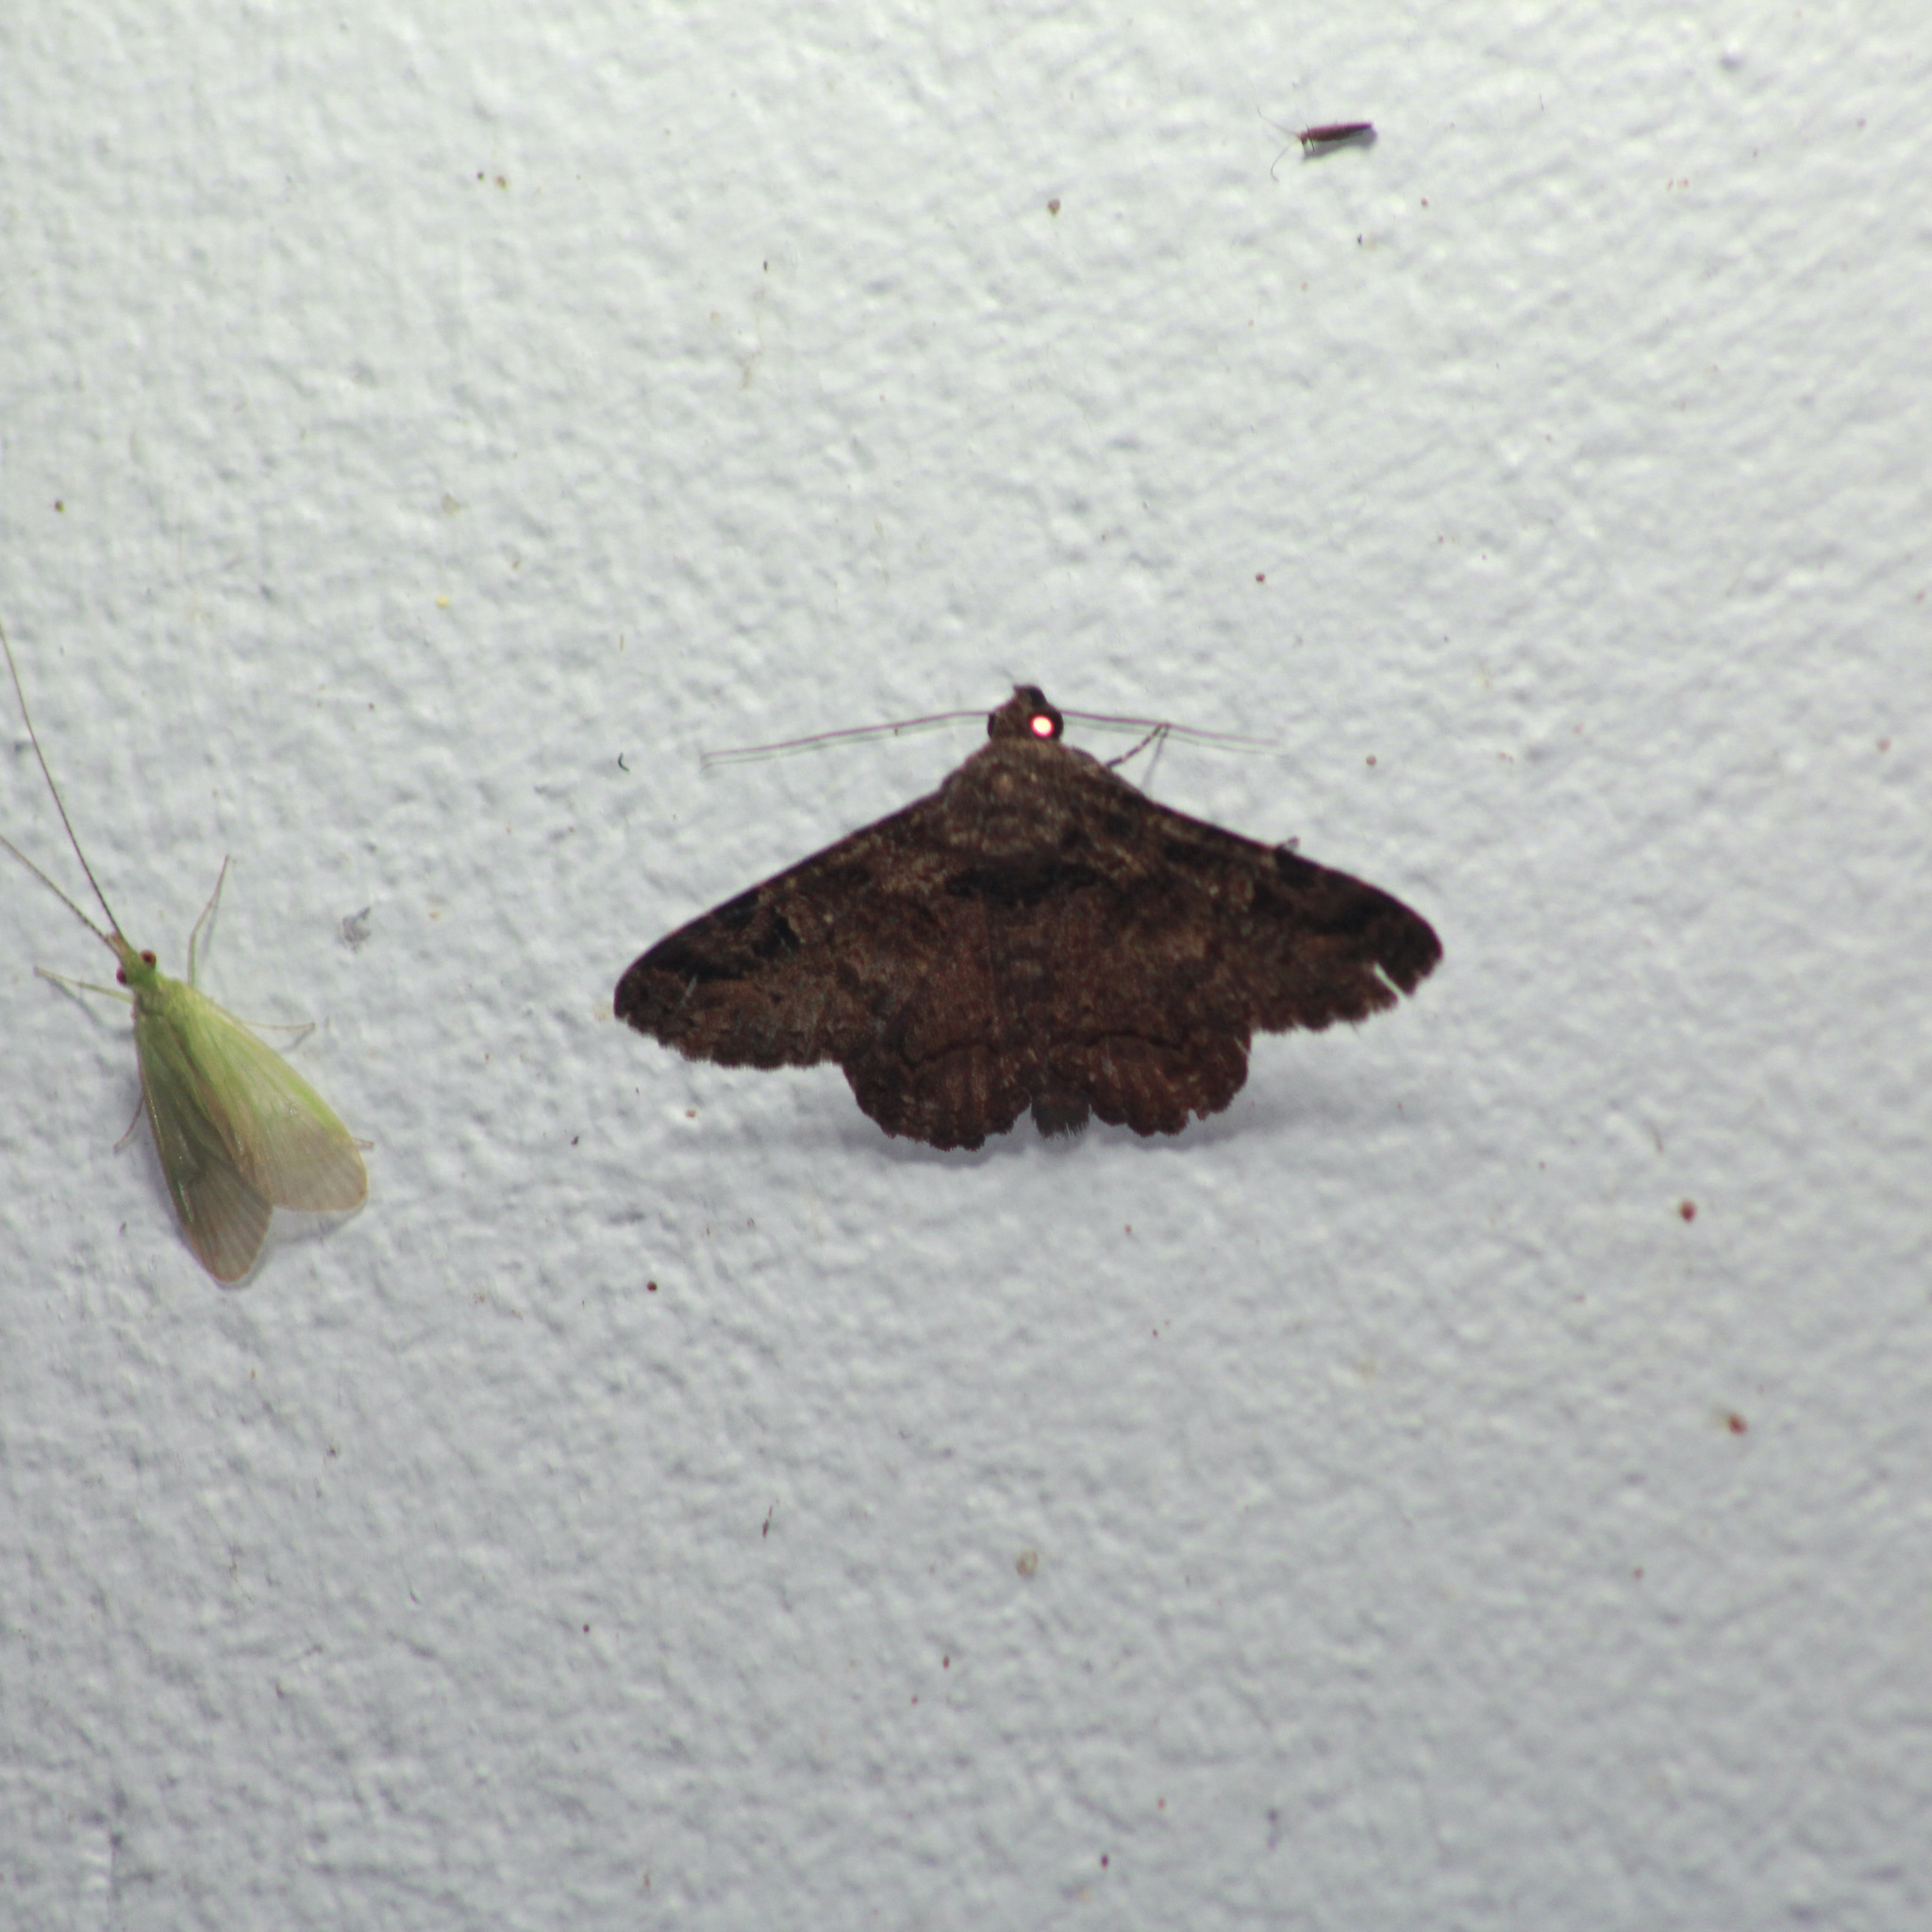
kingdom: Animalia
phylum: Arthropoda
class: Insecta
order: Lepidoptera
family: Erebidae
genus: Metria
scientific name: Metria
